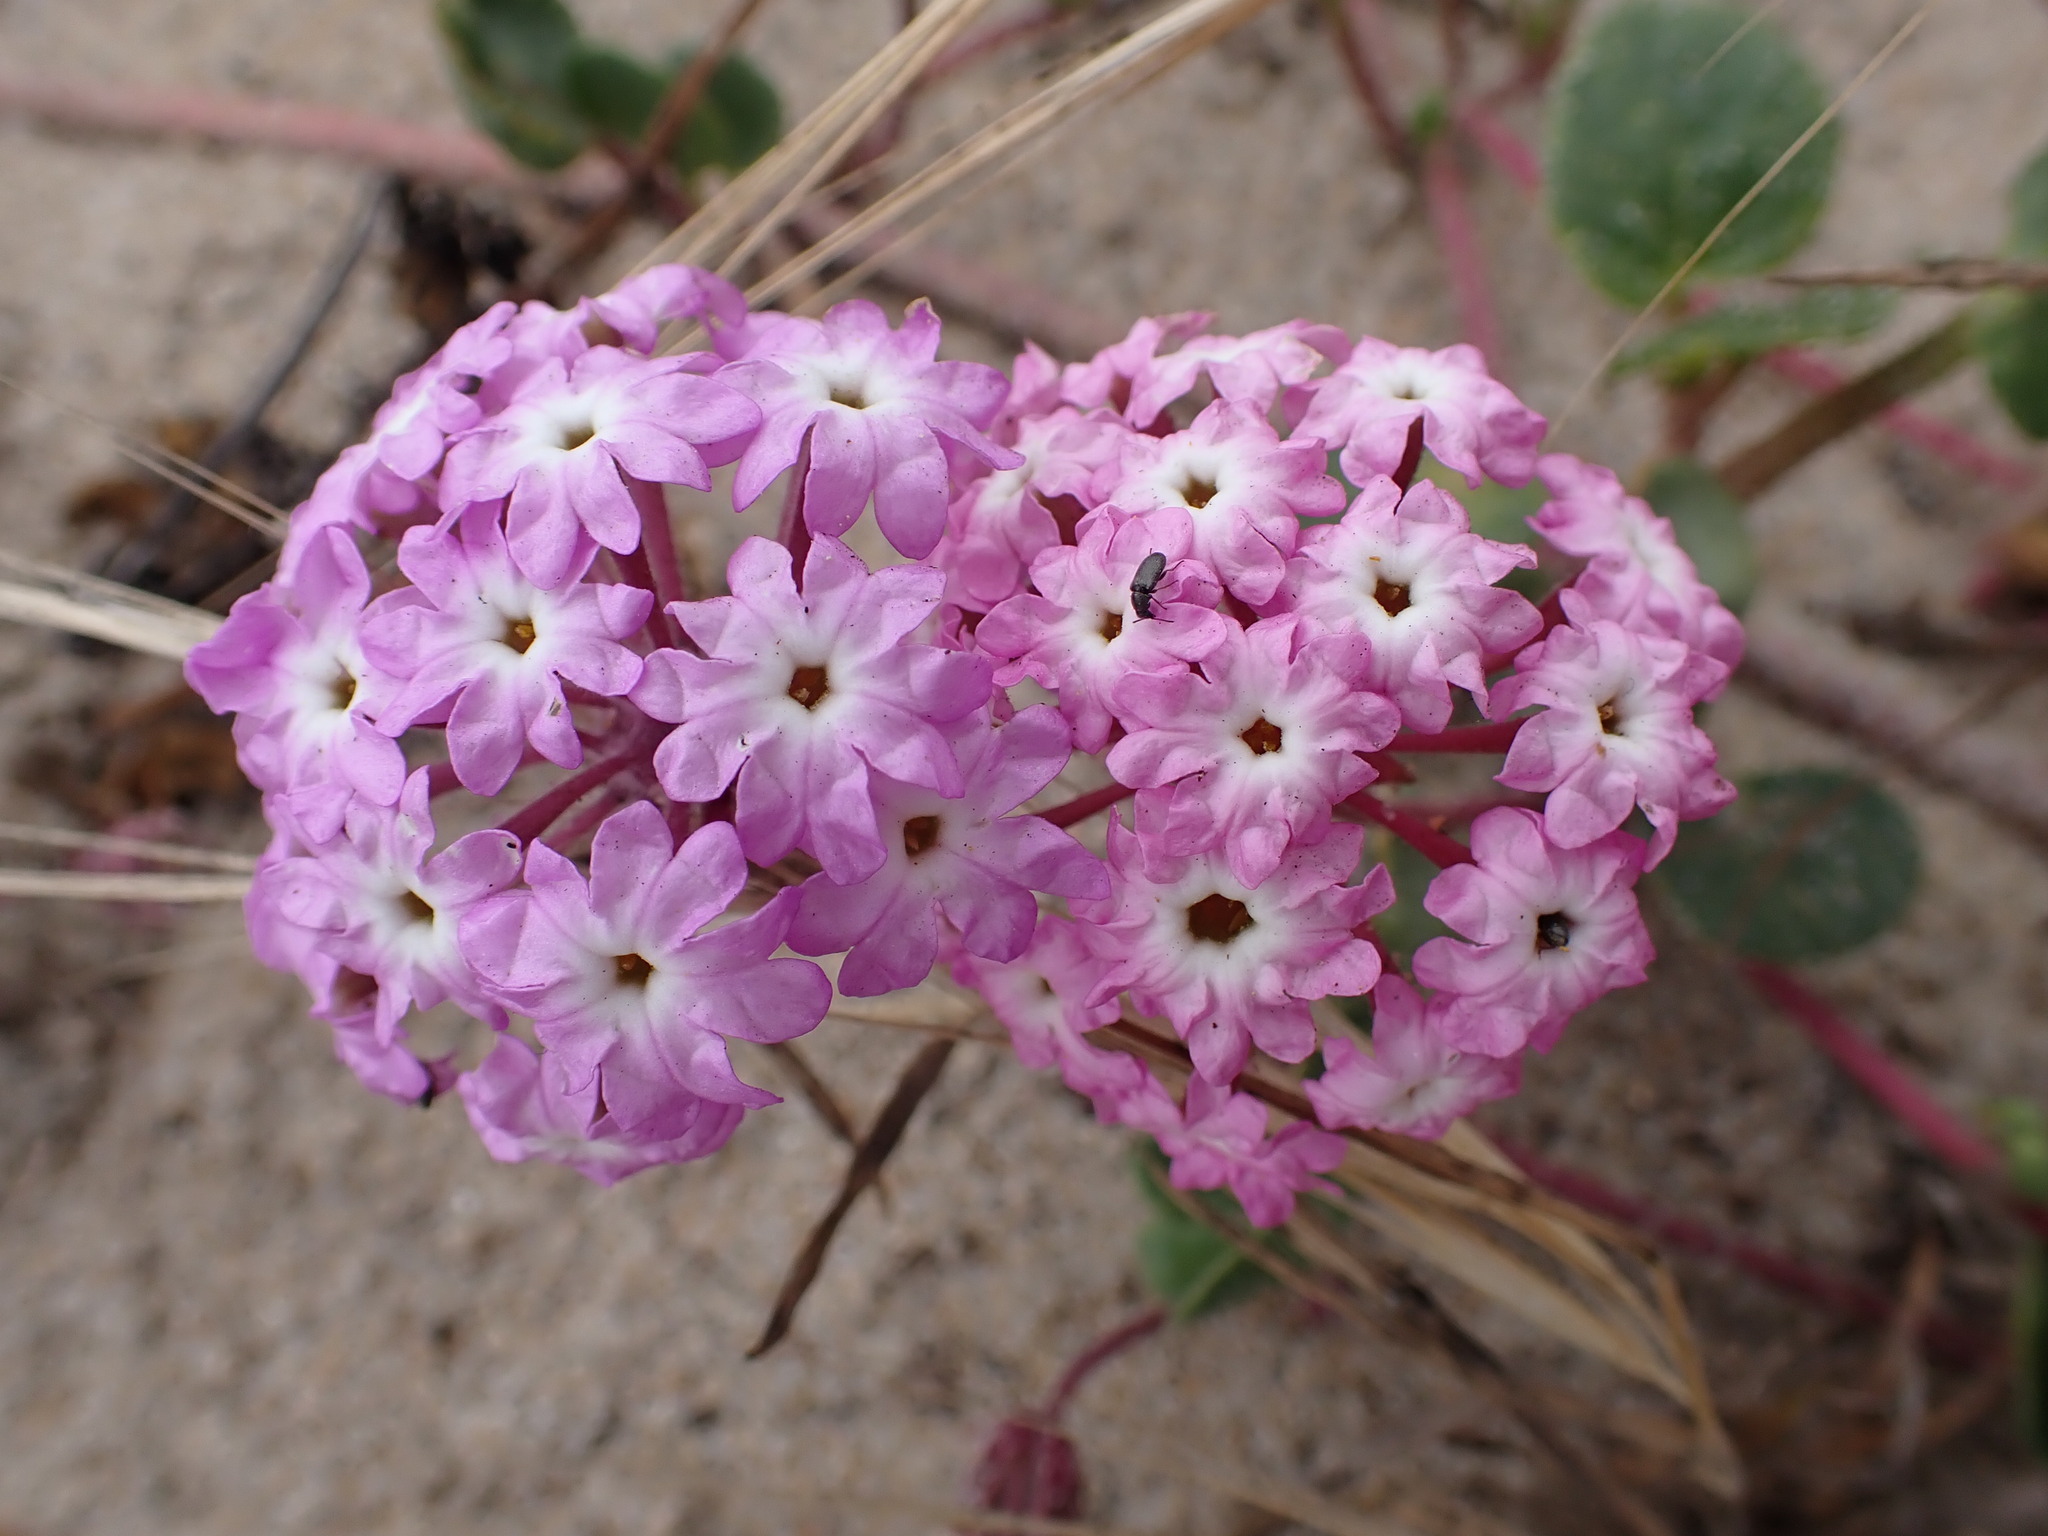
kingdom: Plantae
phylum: Tracheophyta
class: Magnoliopsida
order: Caryophyllales
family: Nyctaginaceae
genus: Abronia
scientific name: Abronia umbellata
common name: Sand-verbena
